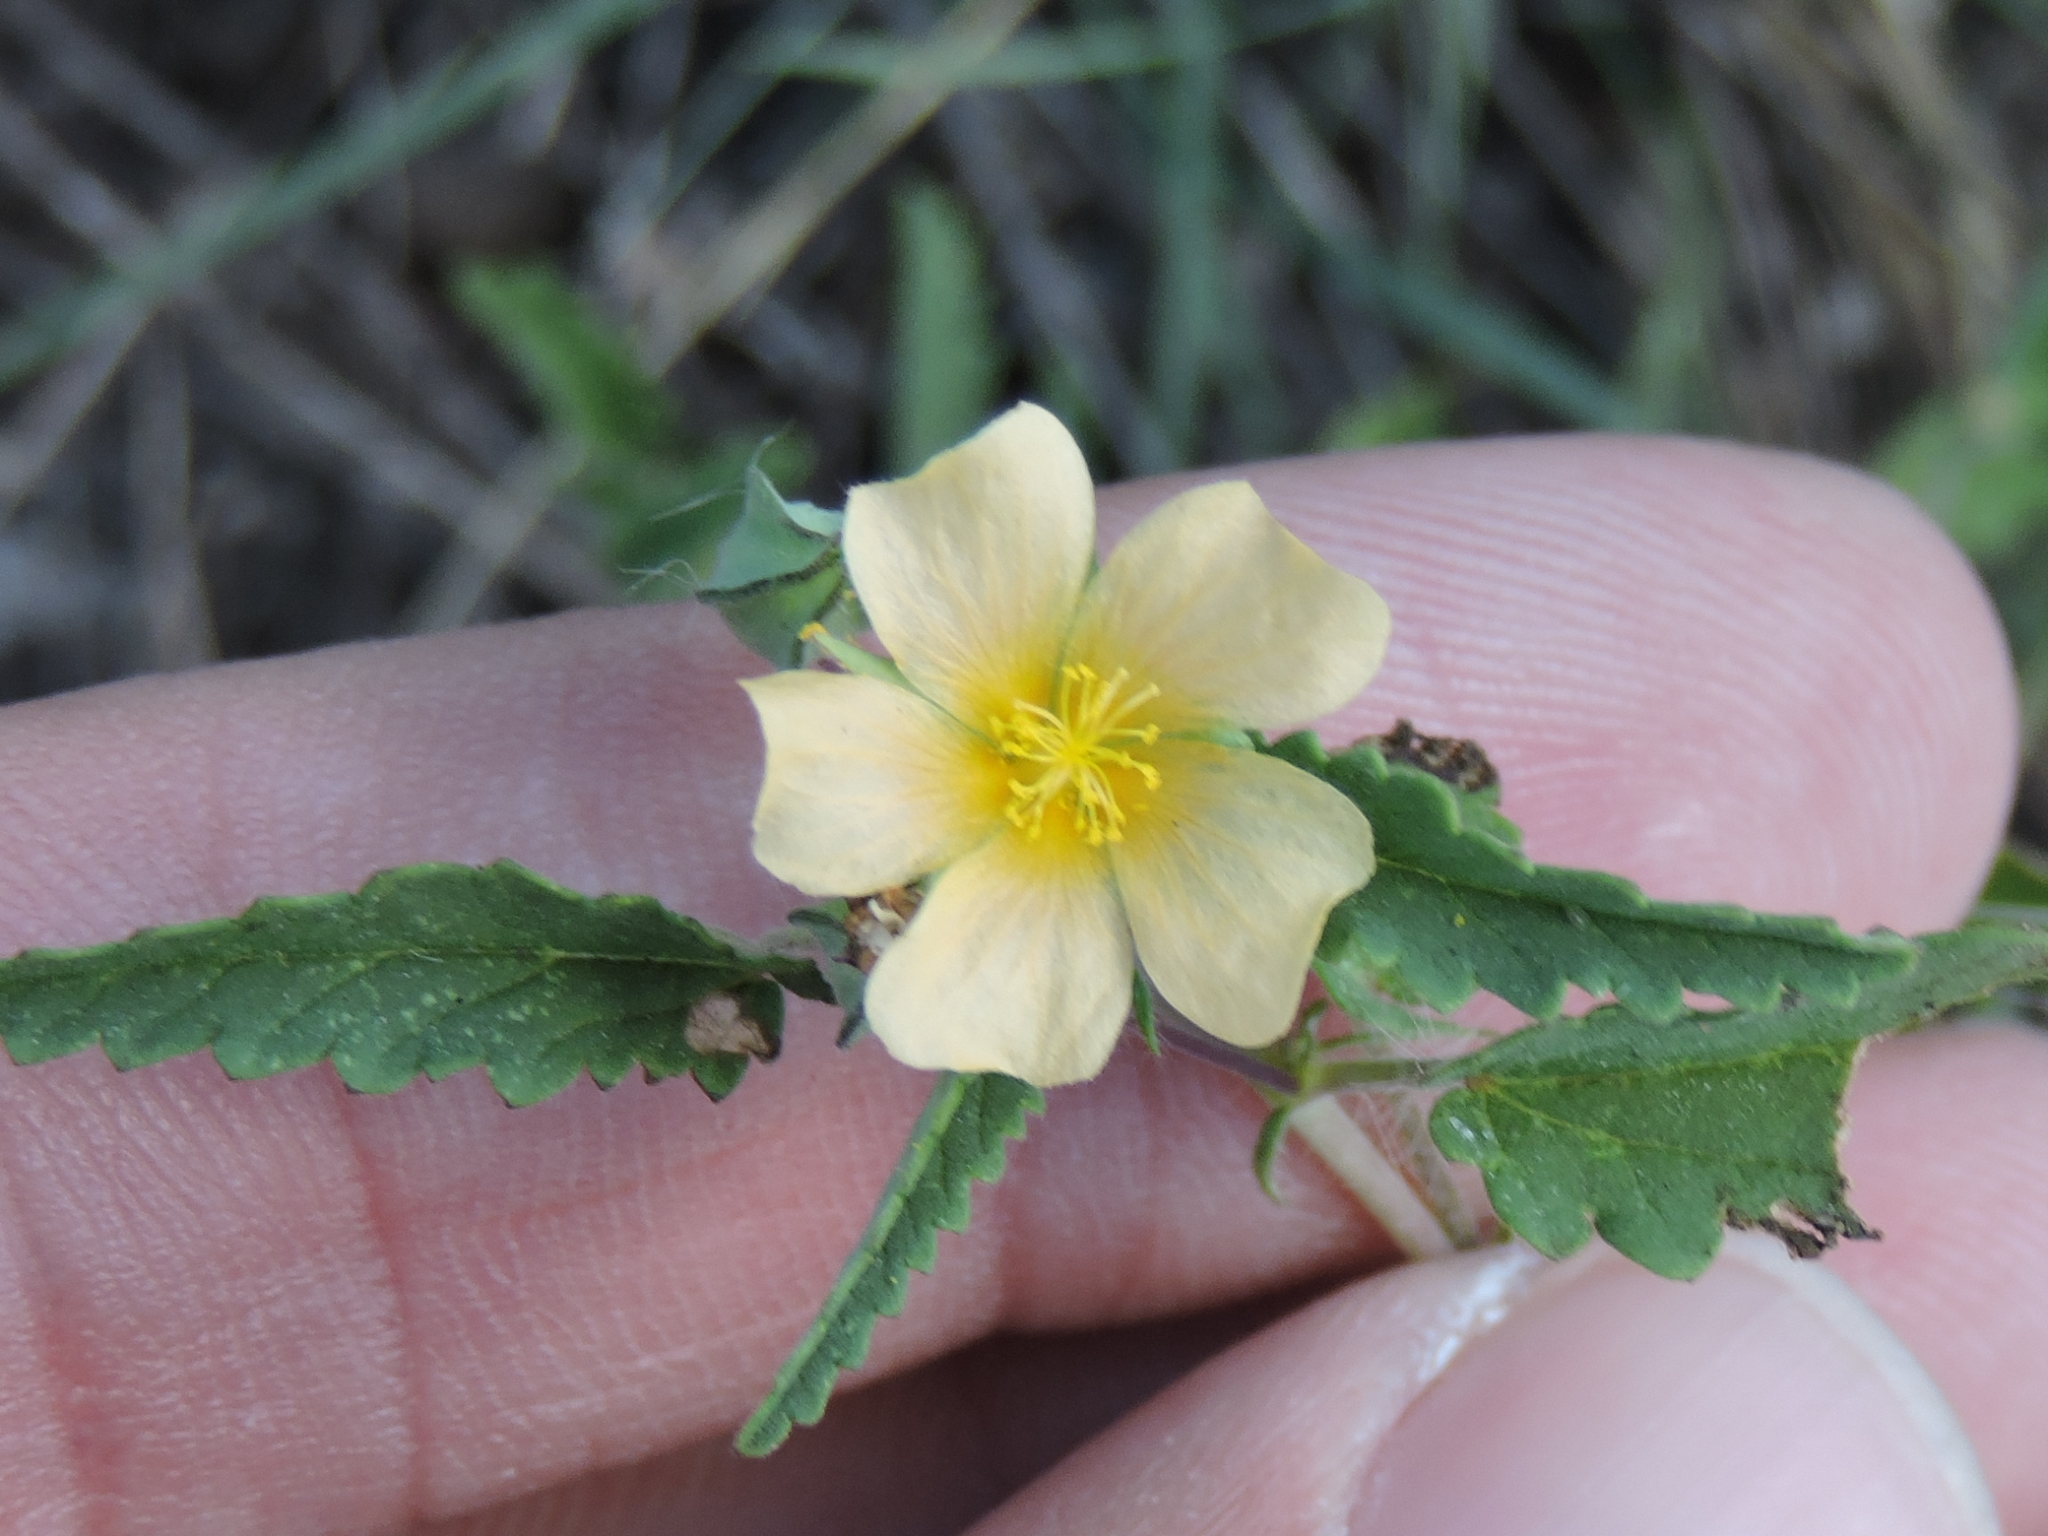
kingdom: Plantae
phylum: Tracheophyta
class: Magnoliopsida
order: Malvales
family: Malvaceae
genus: Sida
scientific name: Sida abutilifolia
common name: Spreading fanpetals
